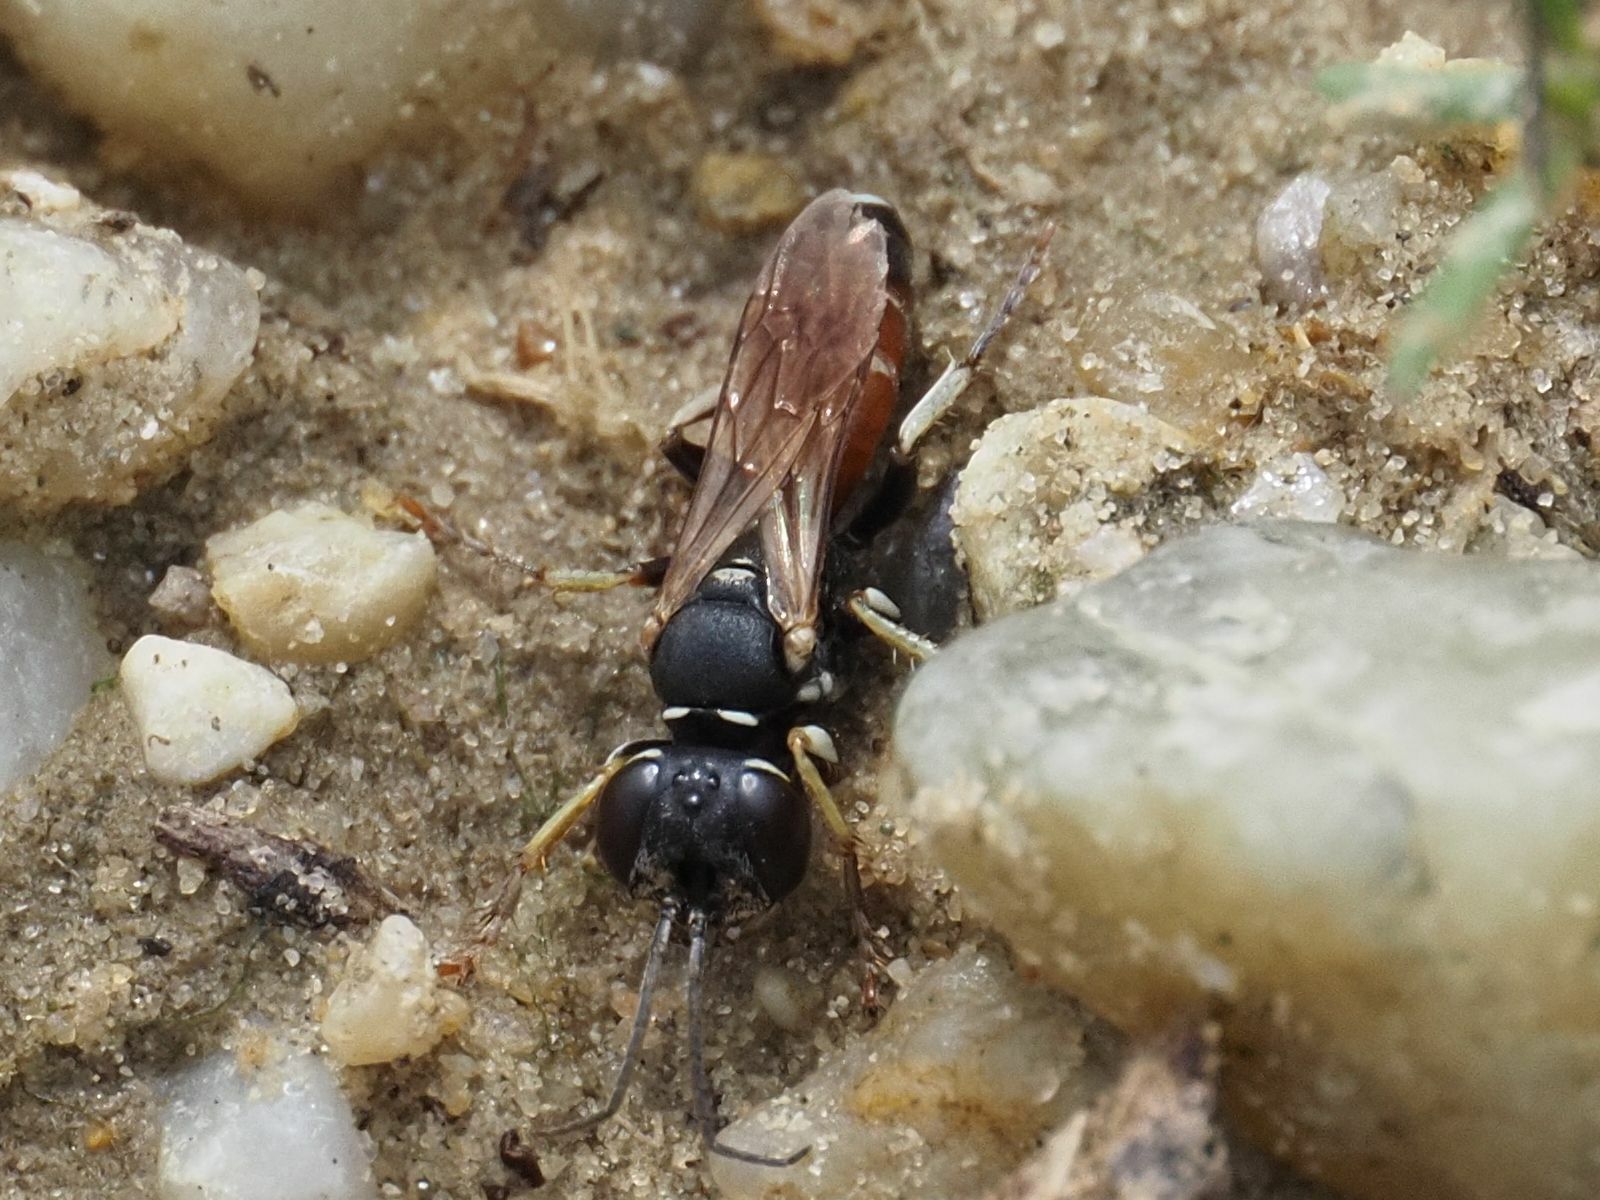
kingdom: Animalia
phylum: Arthropoda
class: Insecta
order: Hymenoptera
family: Crabronidae
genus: Dinetus
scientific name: Dinetus pictus
